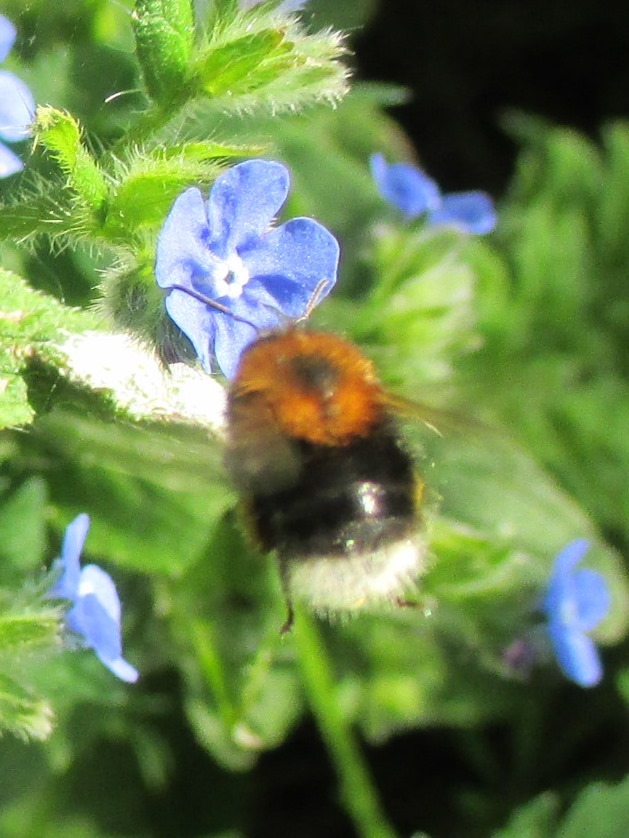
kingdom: Animalia
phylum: Arthropoda
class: Insecta
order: Hymenoptera
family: Apidae
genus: Bombus
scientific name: Bombus hypnorum
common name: New garden bumblebee
